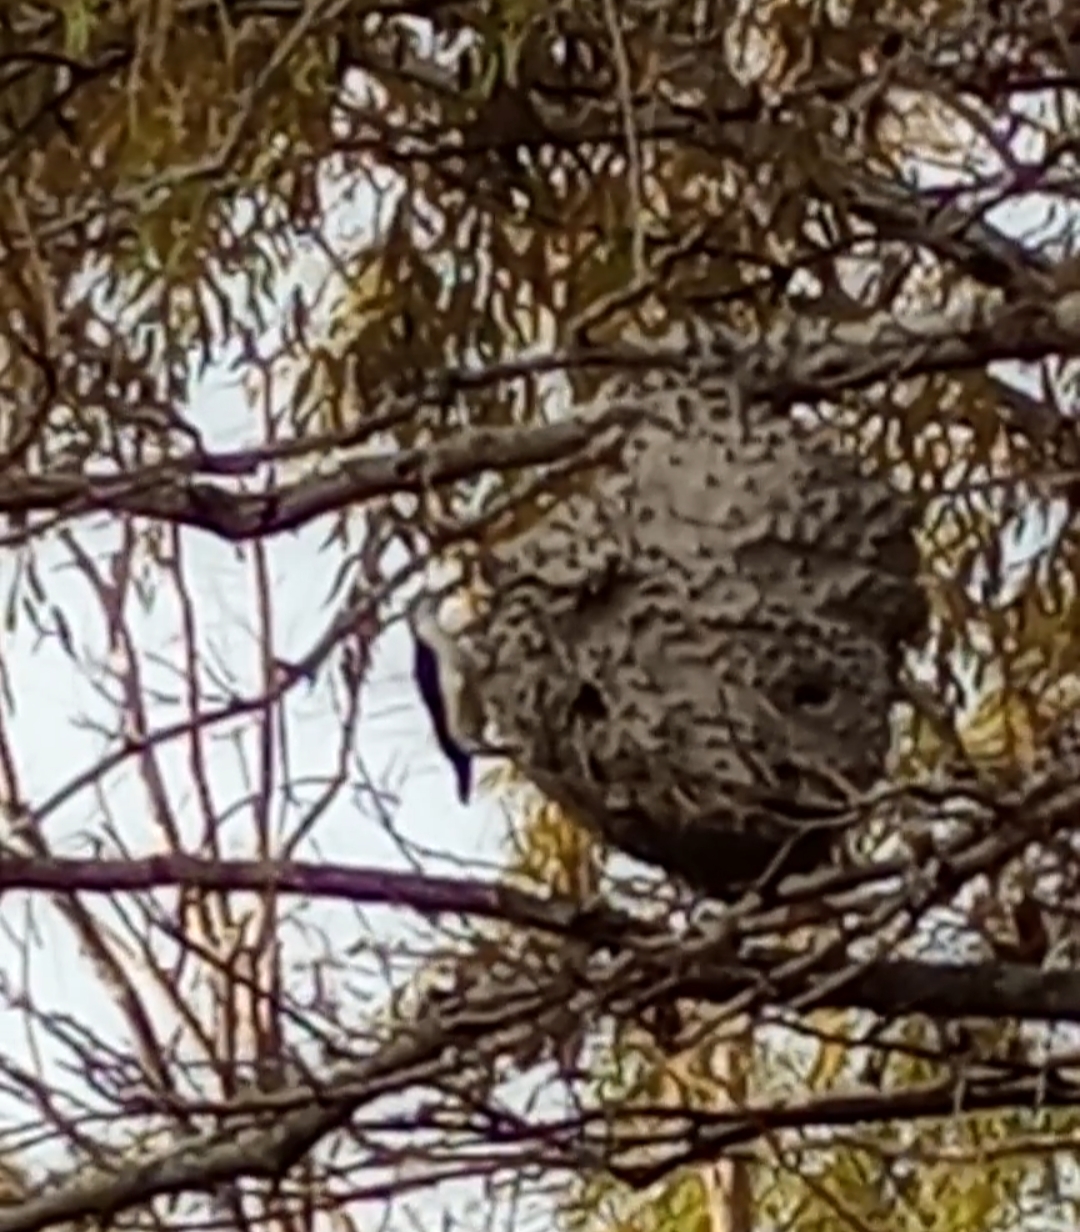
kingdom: Animalia
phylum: Chordata
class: Aves
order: Piciformes
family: Picidae
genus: Melanerpes
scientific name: Melanerpes candidus
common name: White woodpecker
